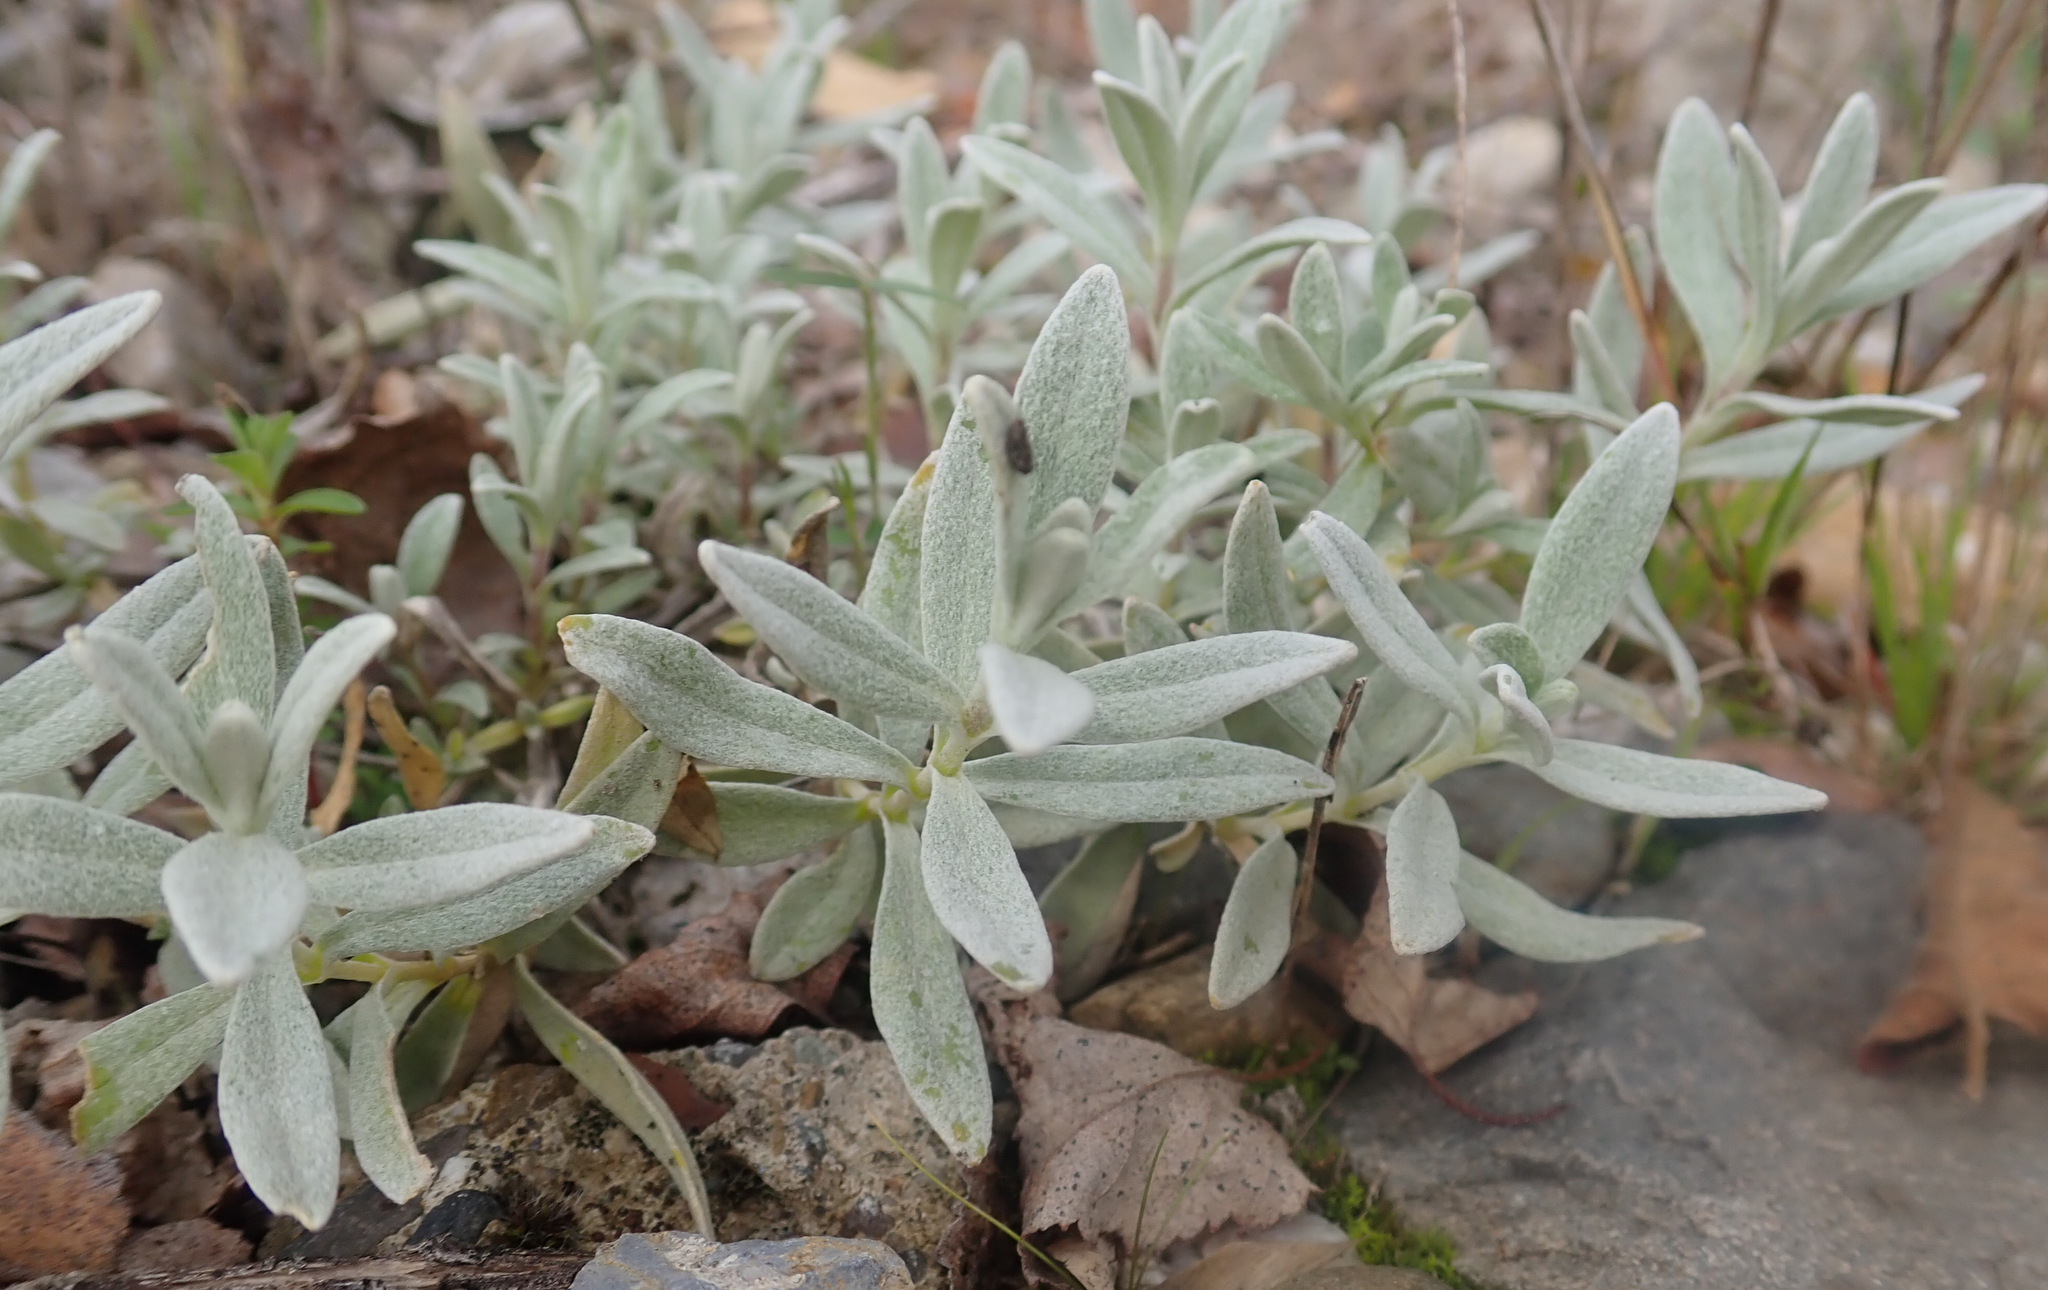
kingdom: Plantae
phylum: Tracheophyta
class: Magnoliopsida
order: Caryophyllales
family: Caryophyllaceae
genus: Cerastium
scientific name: Cerastium tomentosum
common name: Snow-in-summer
